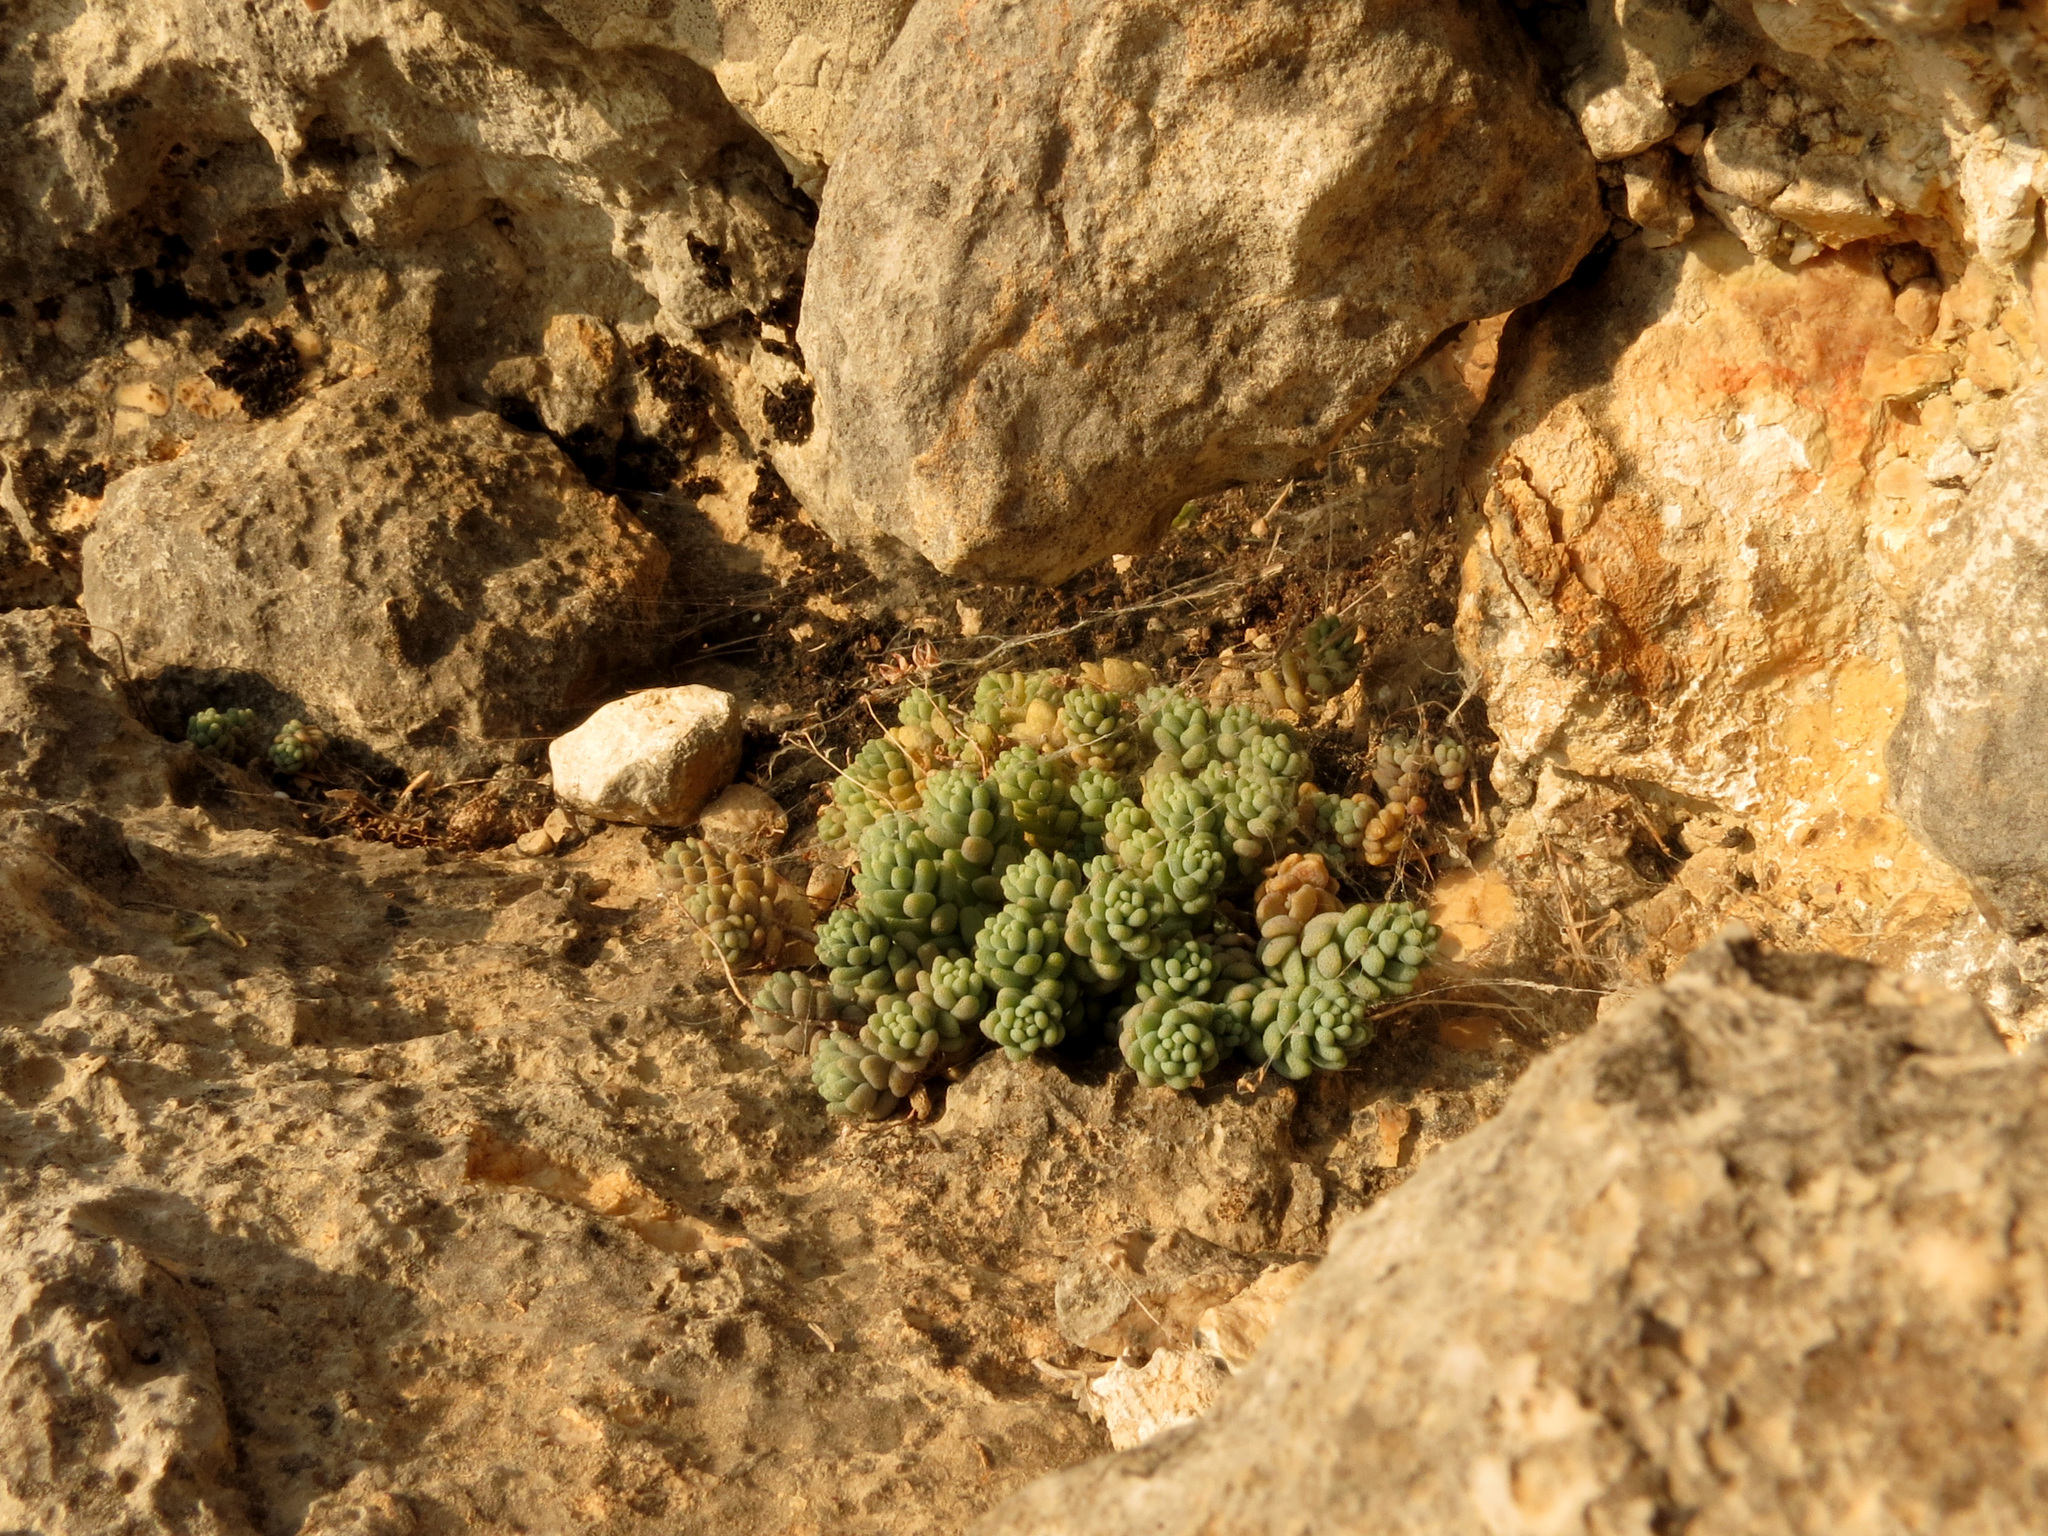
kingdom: Plantae
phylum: Tracheophyta
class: Magnoliopsida
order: Saxifragales
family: Crassulaceae
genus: Sedum
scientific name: Sedum dasyphyllum
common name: Thick-leaf stonecrop
